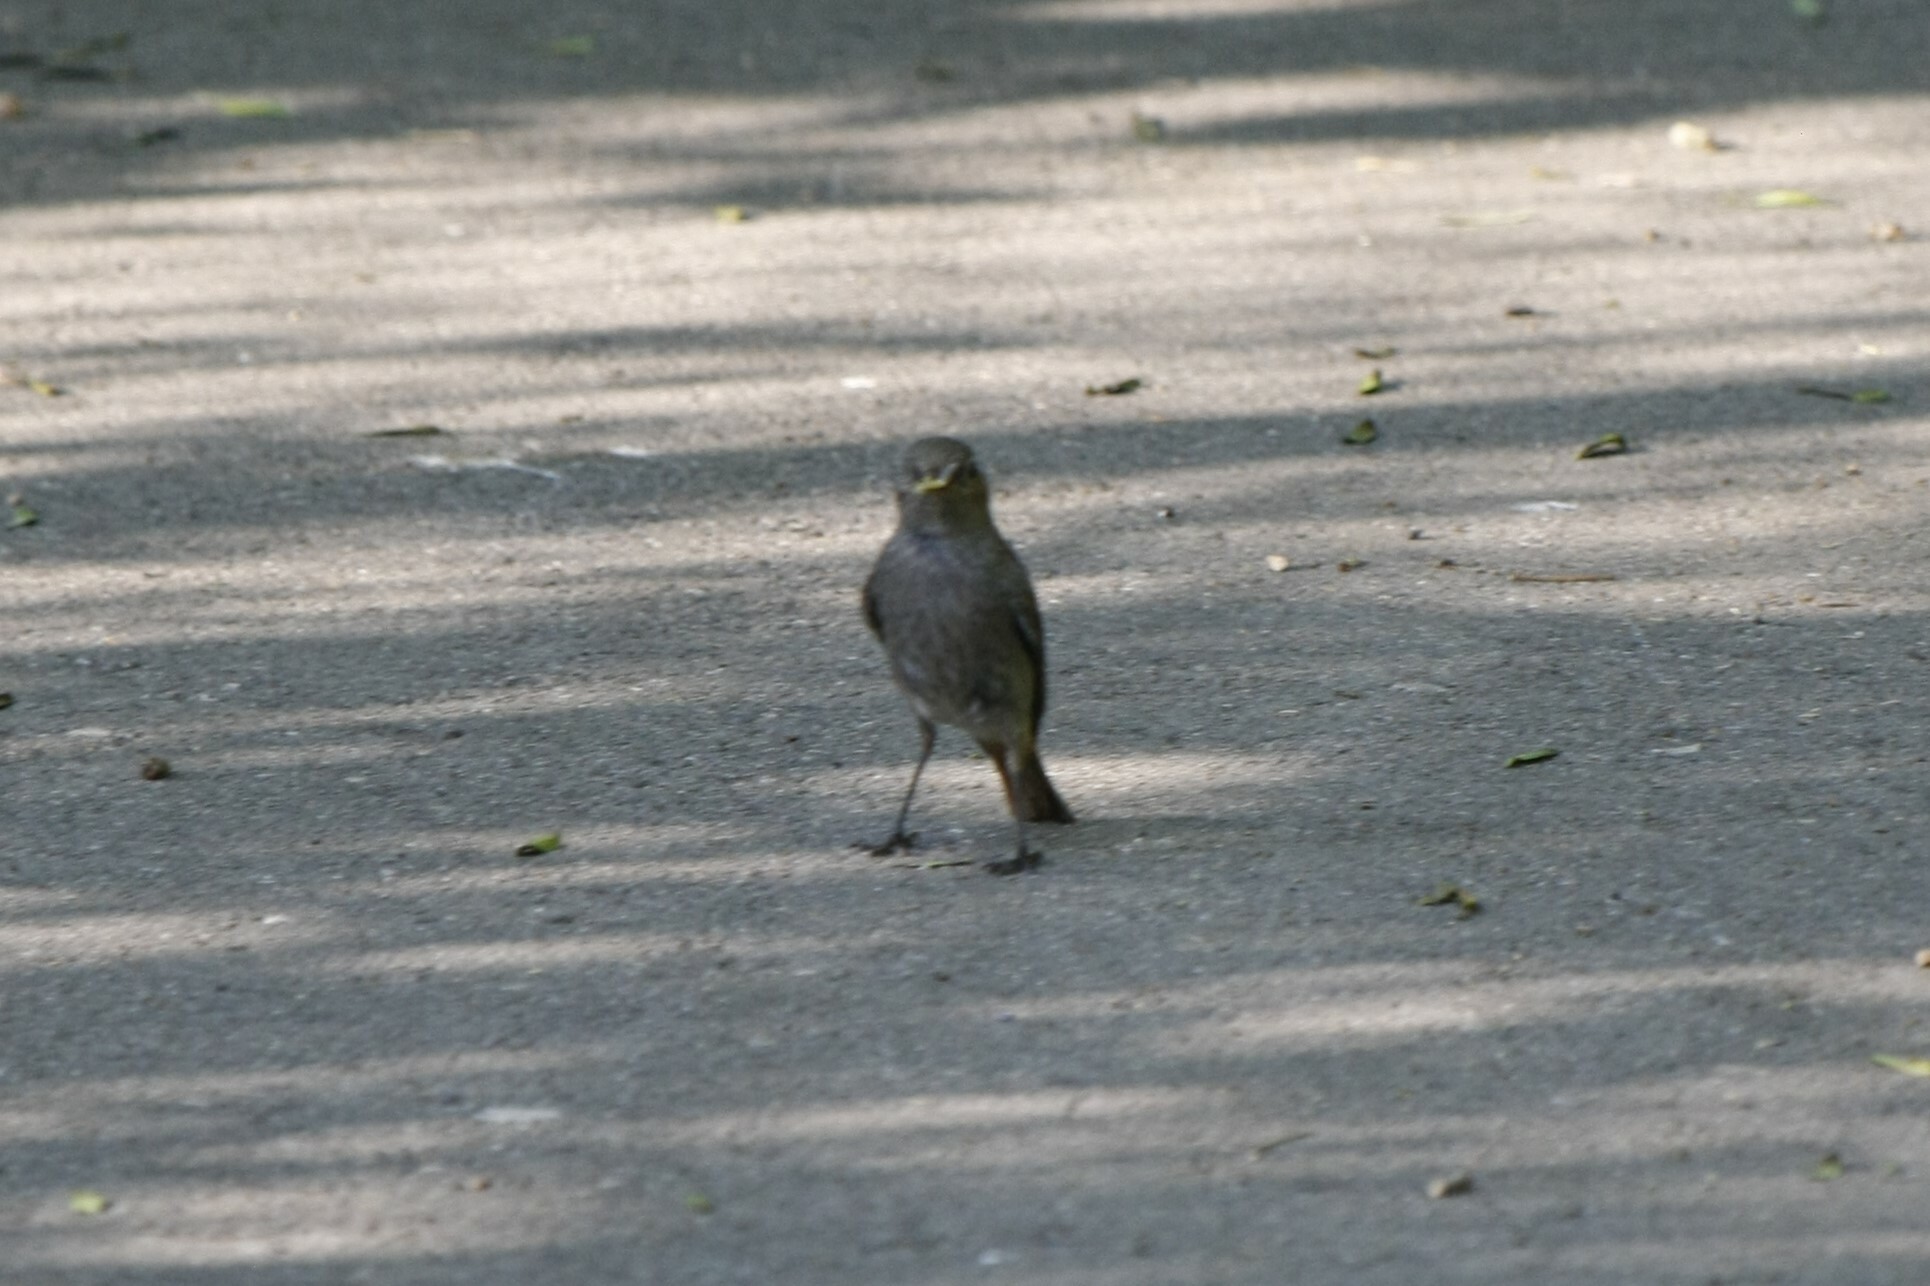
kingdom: Animalia
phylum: Chordata
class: Aves
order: Passeriformes
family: Muscicapidae
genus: Phoenicurus
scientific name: Phoenicurus ochruros
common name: Black redstart
